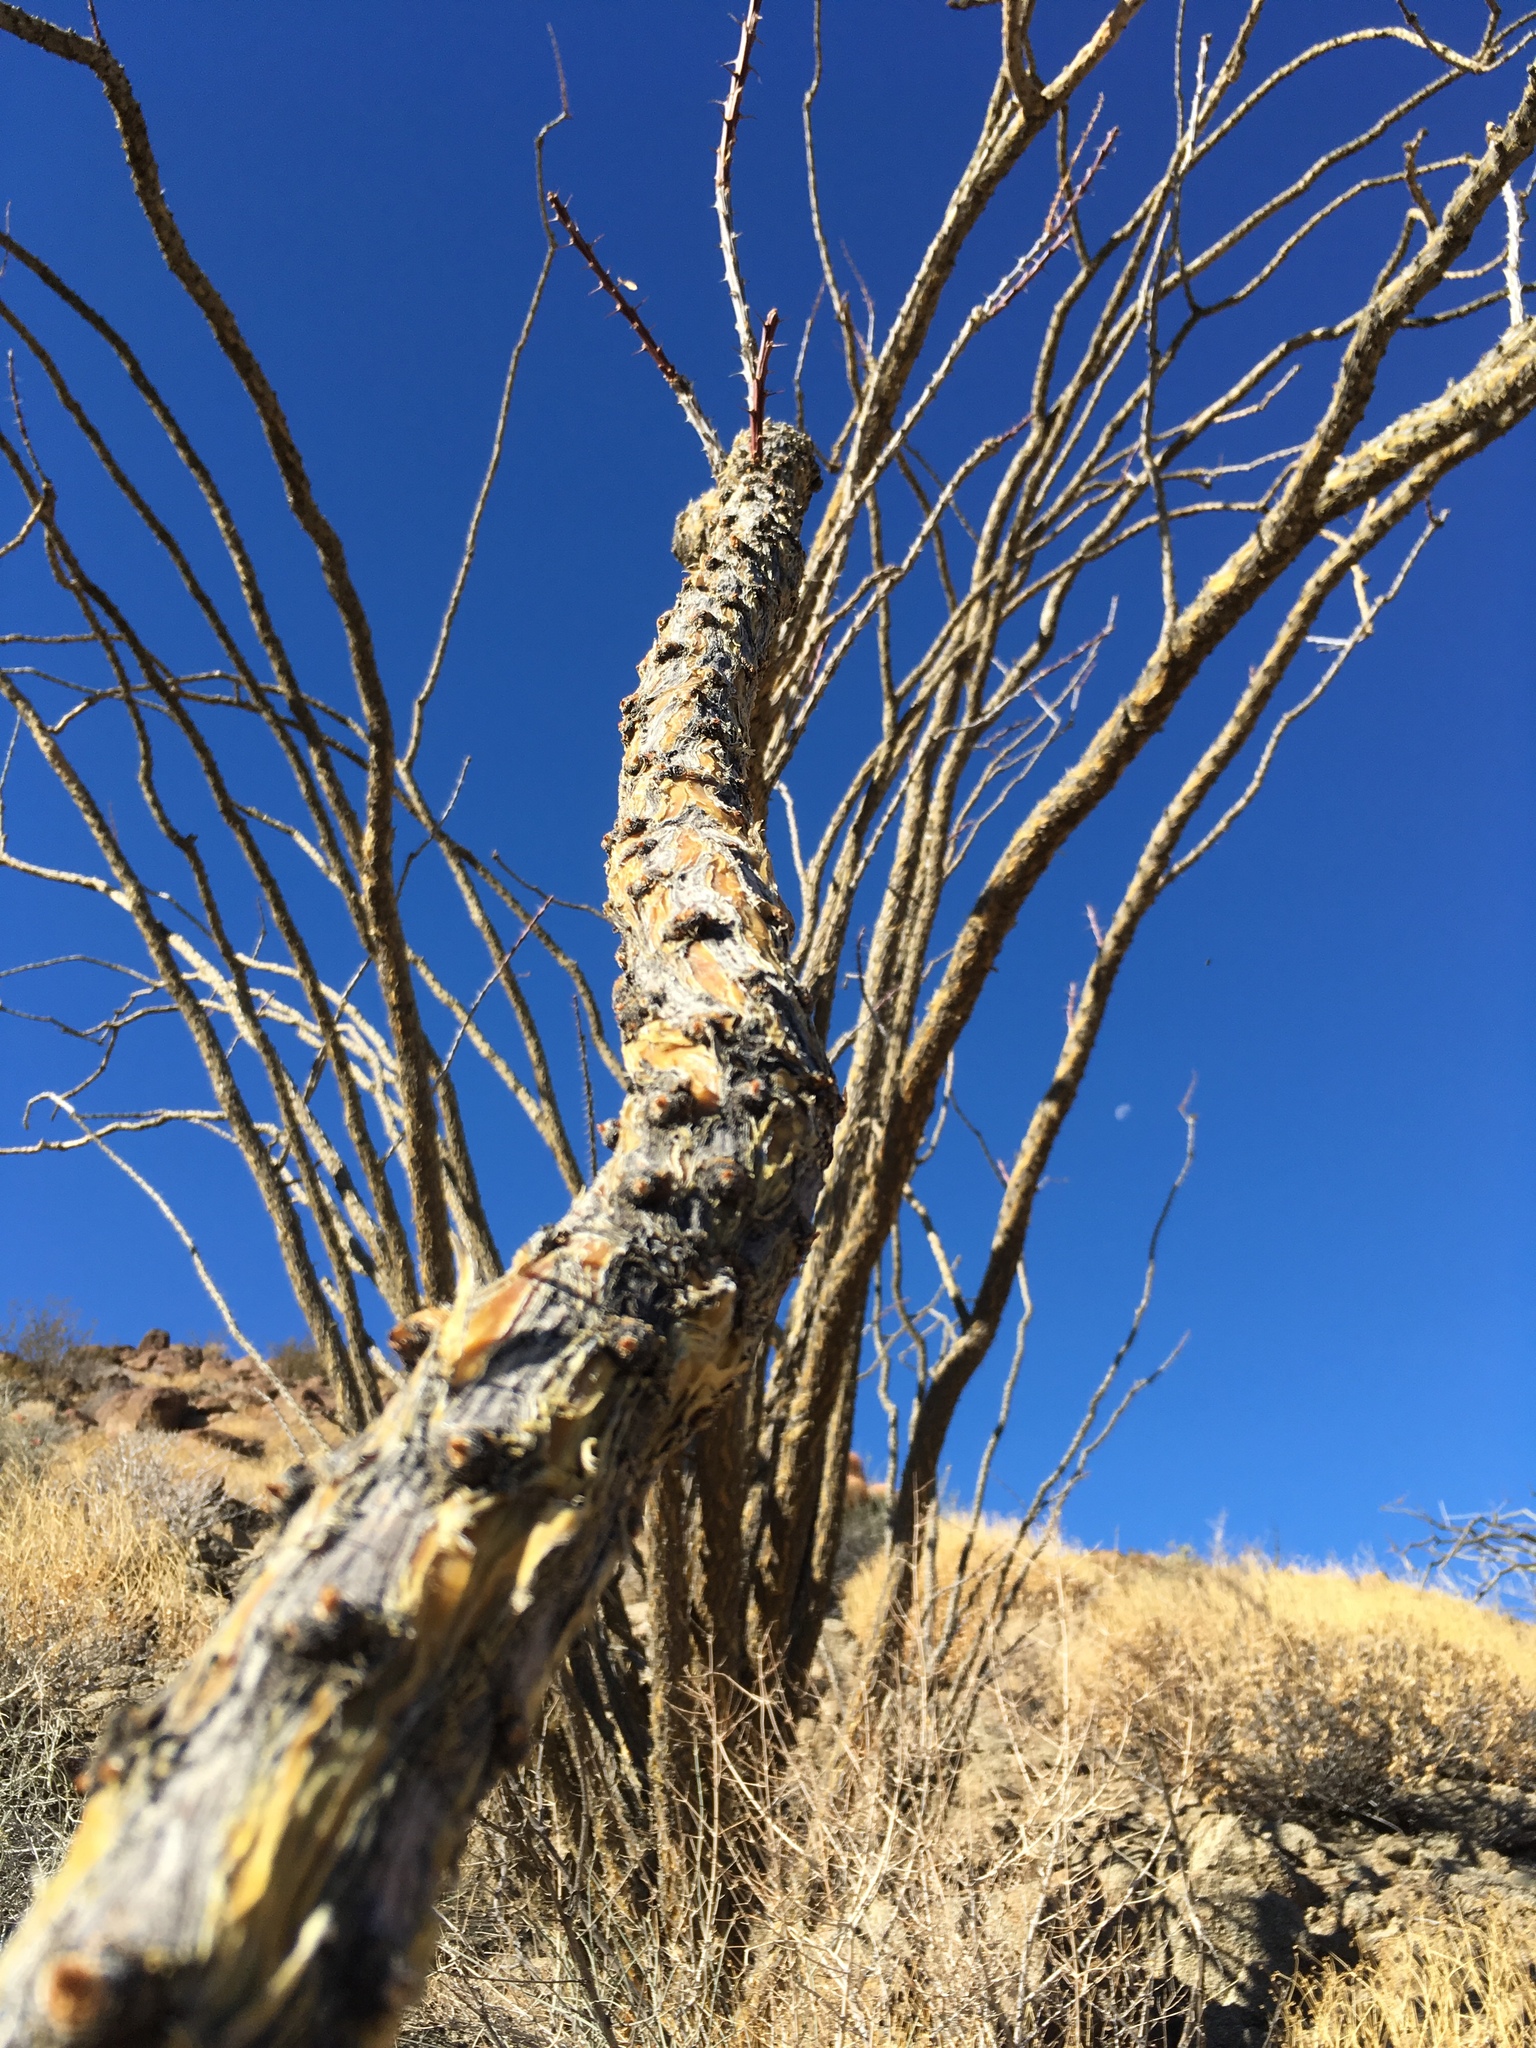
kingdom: Plantae
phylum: Tracheophyta
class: Magnoliopsida
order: Ericales
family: Fouquieriaceae
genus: Fouquieria
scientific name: Fouquieria splendens
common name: Vine-cactus
